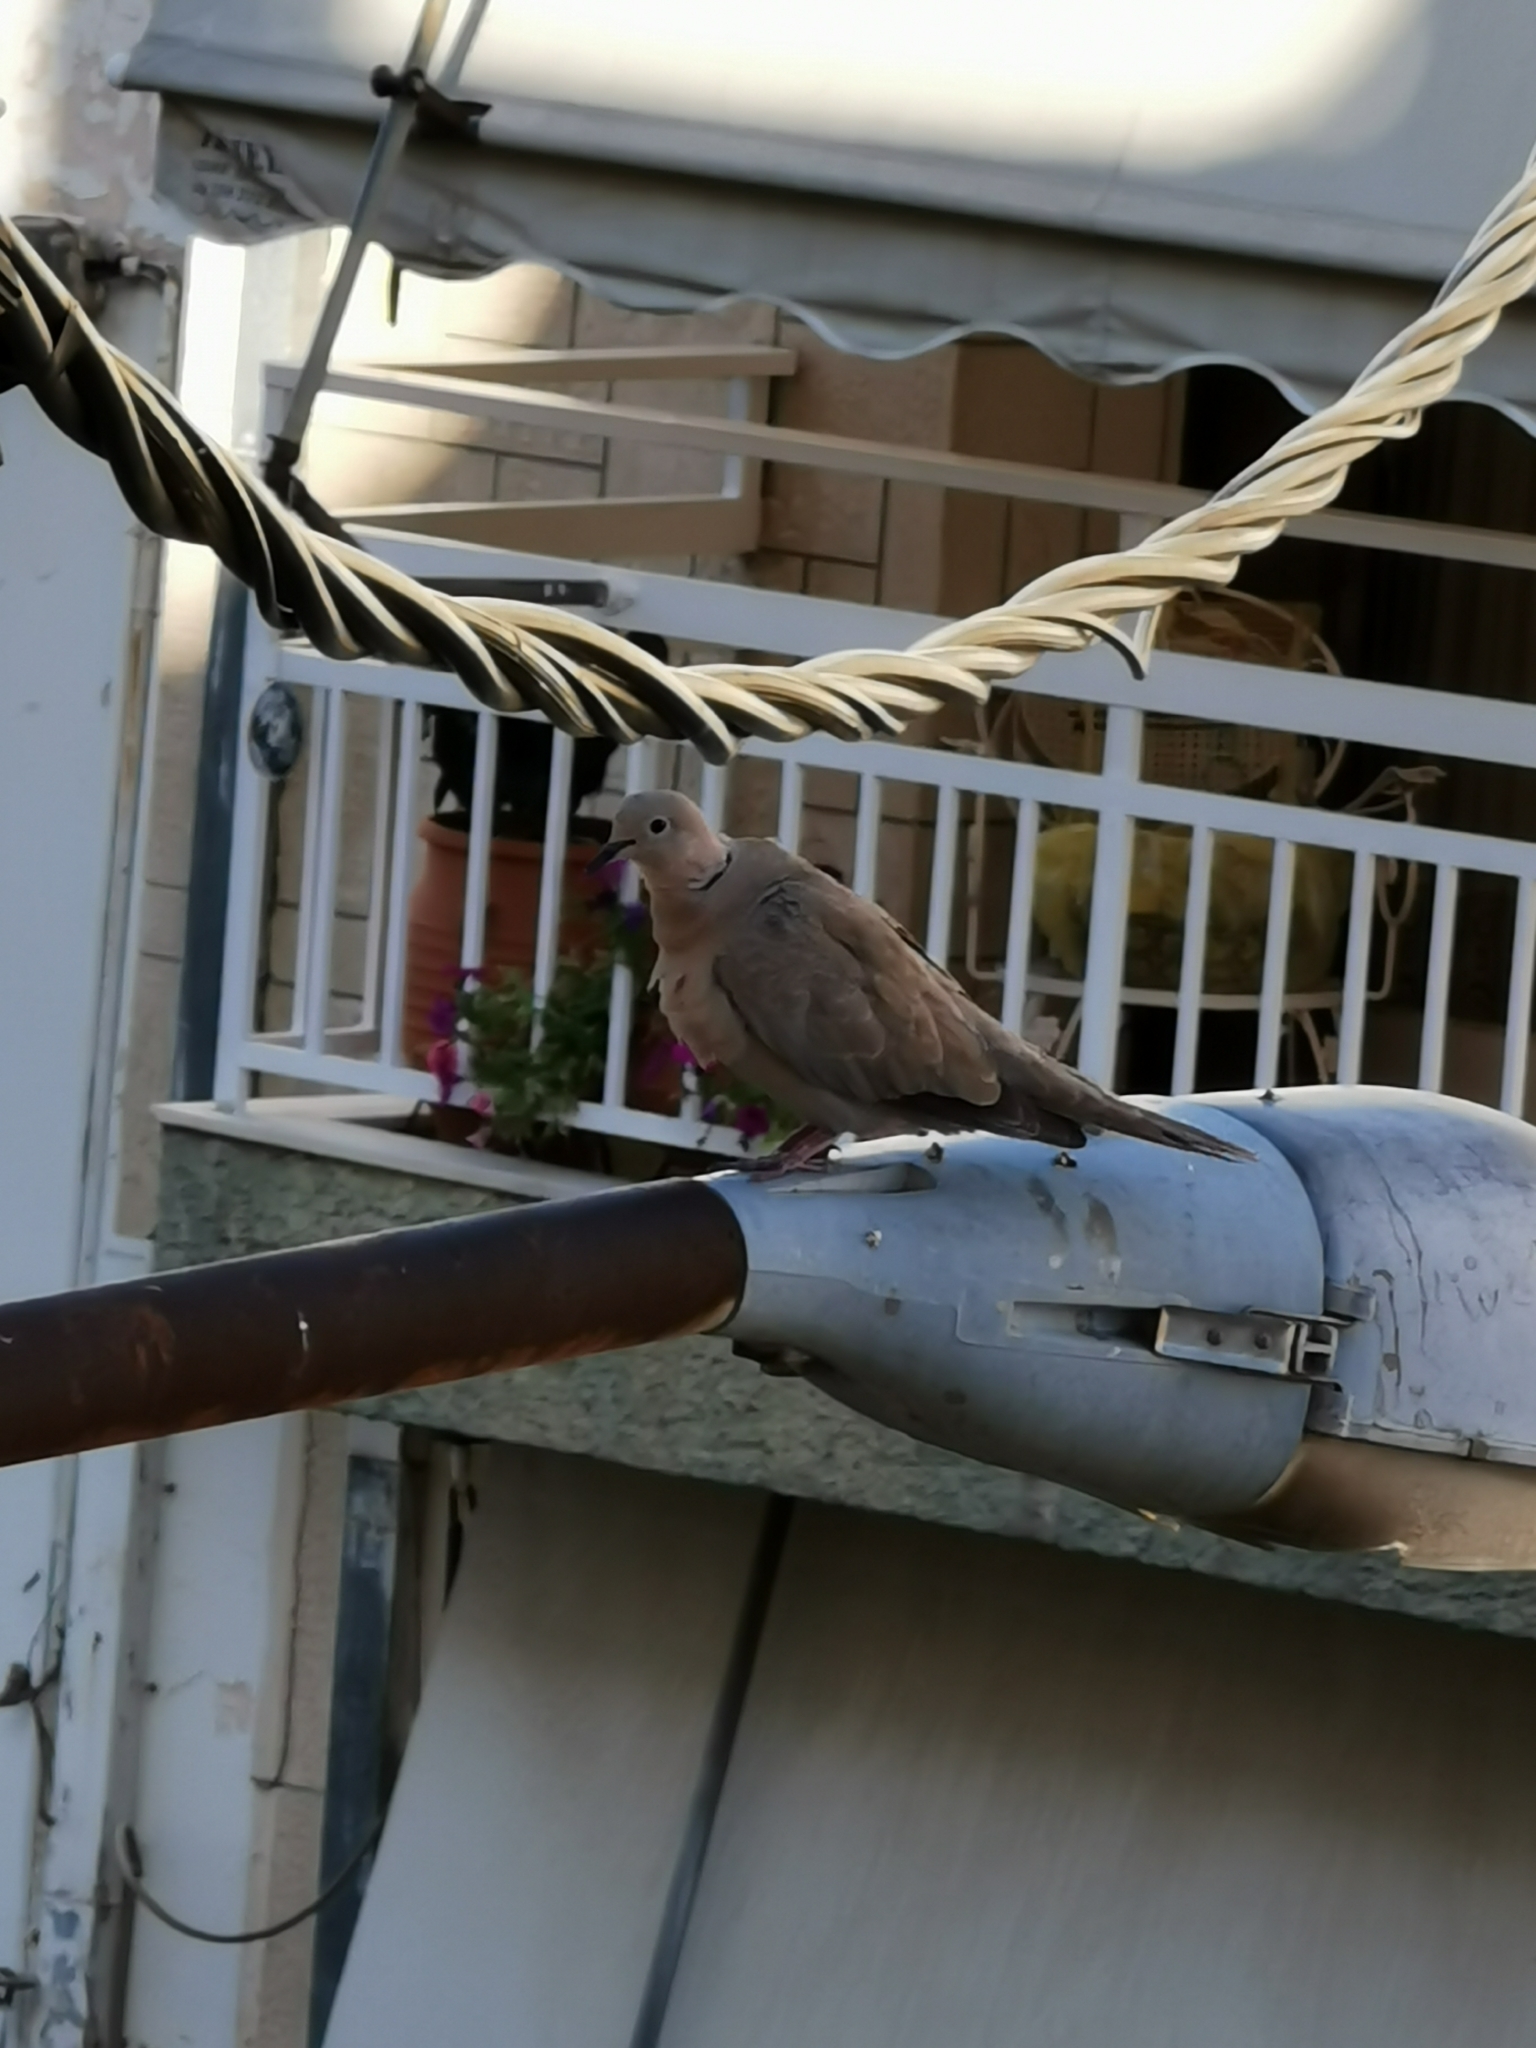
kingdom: Animalia
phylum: Chordata
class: Aves
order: Columbiformes
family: Columbidae
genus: Streptopelia
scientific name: Streptopelia decaocto
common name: Eurasian collared dove
